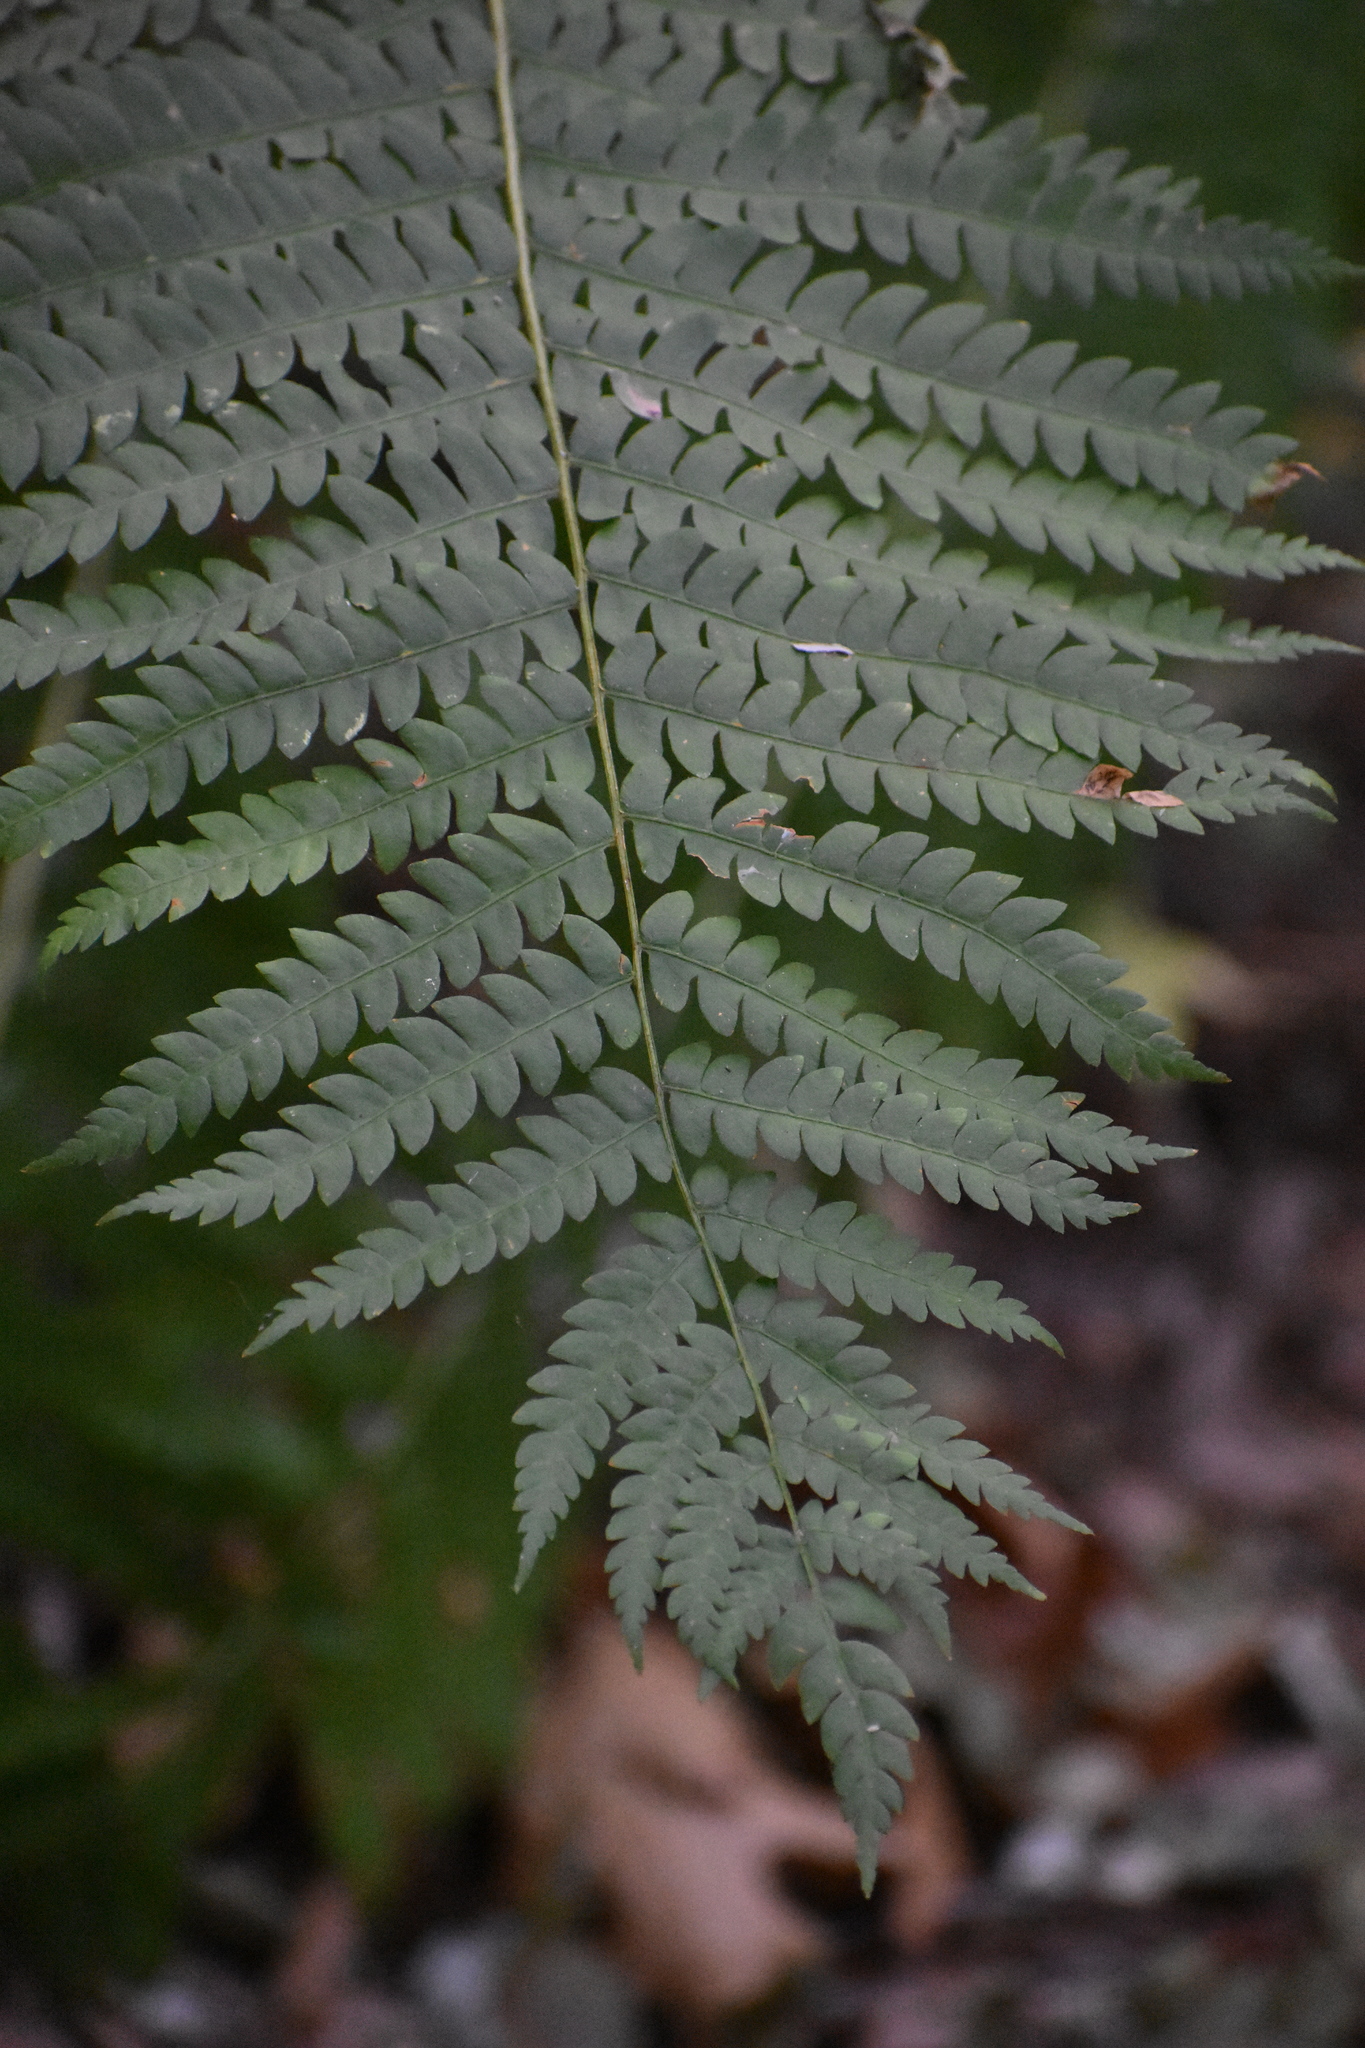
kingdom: Plantae
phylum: Tracheophyta
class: Polypodiopsida
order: Osmundales
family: Osmundaceae
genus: Osmundastrum
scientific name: Osmundastrum cinnamomeum
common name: Cinnamon fern
